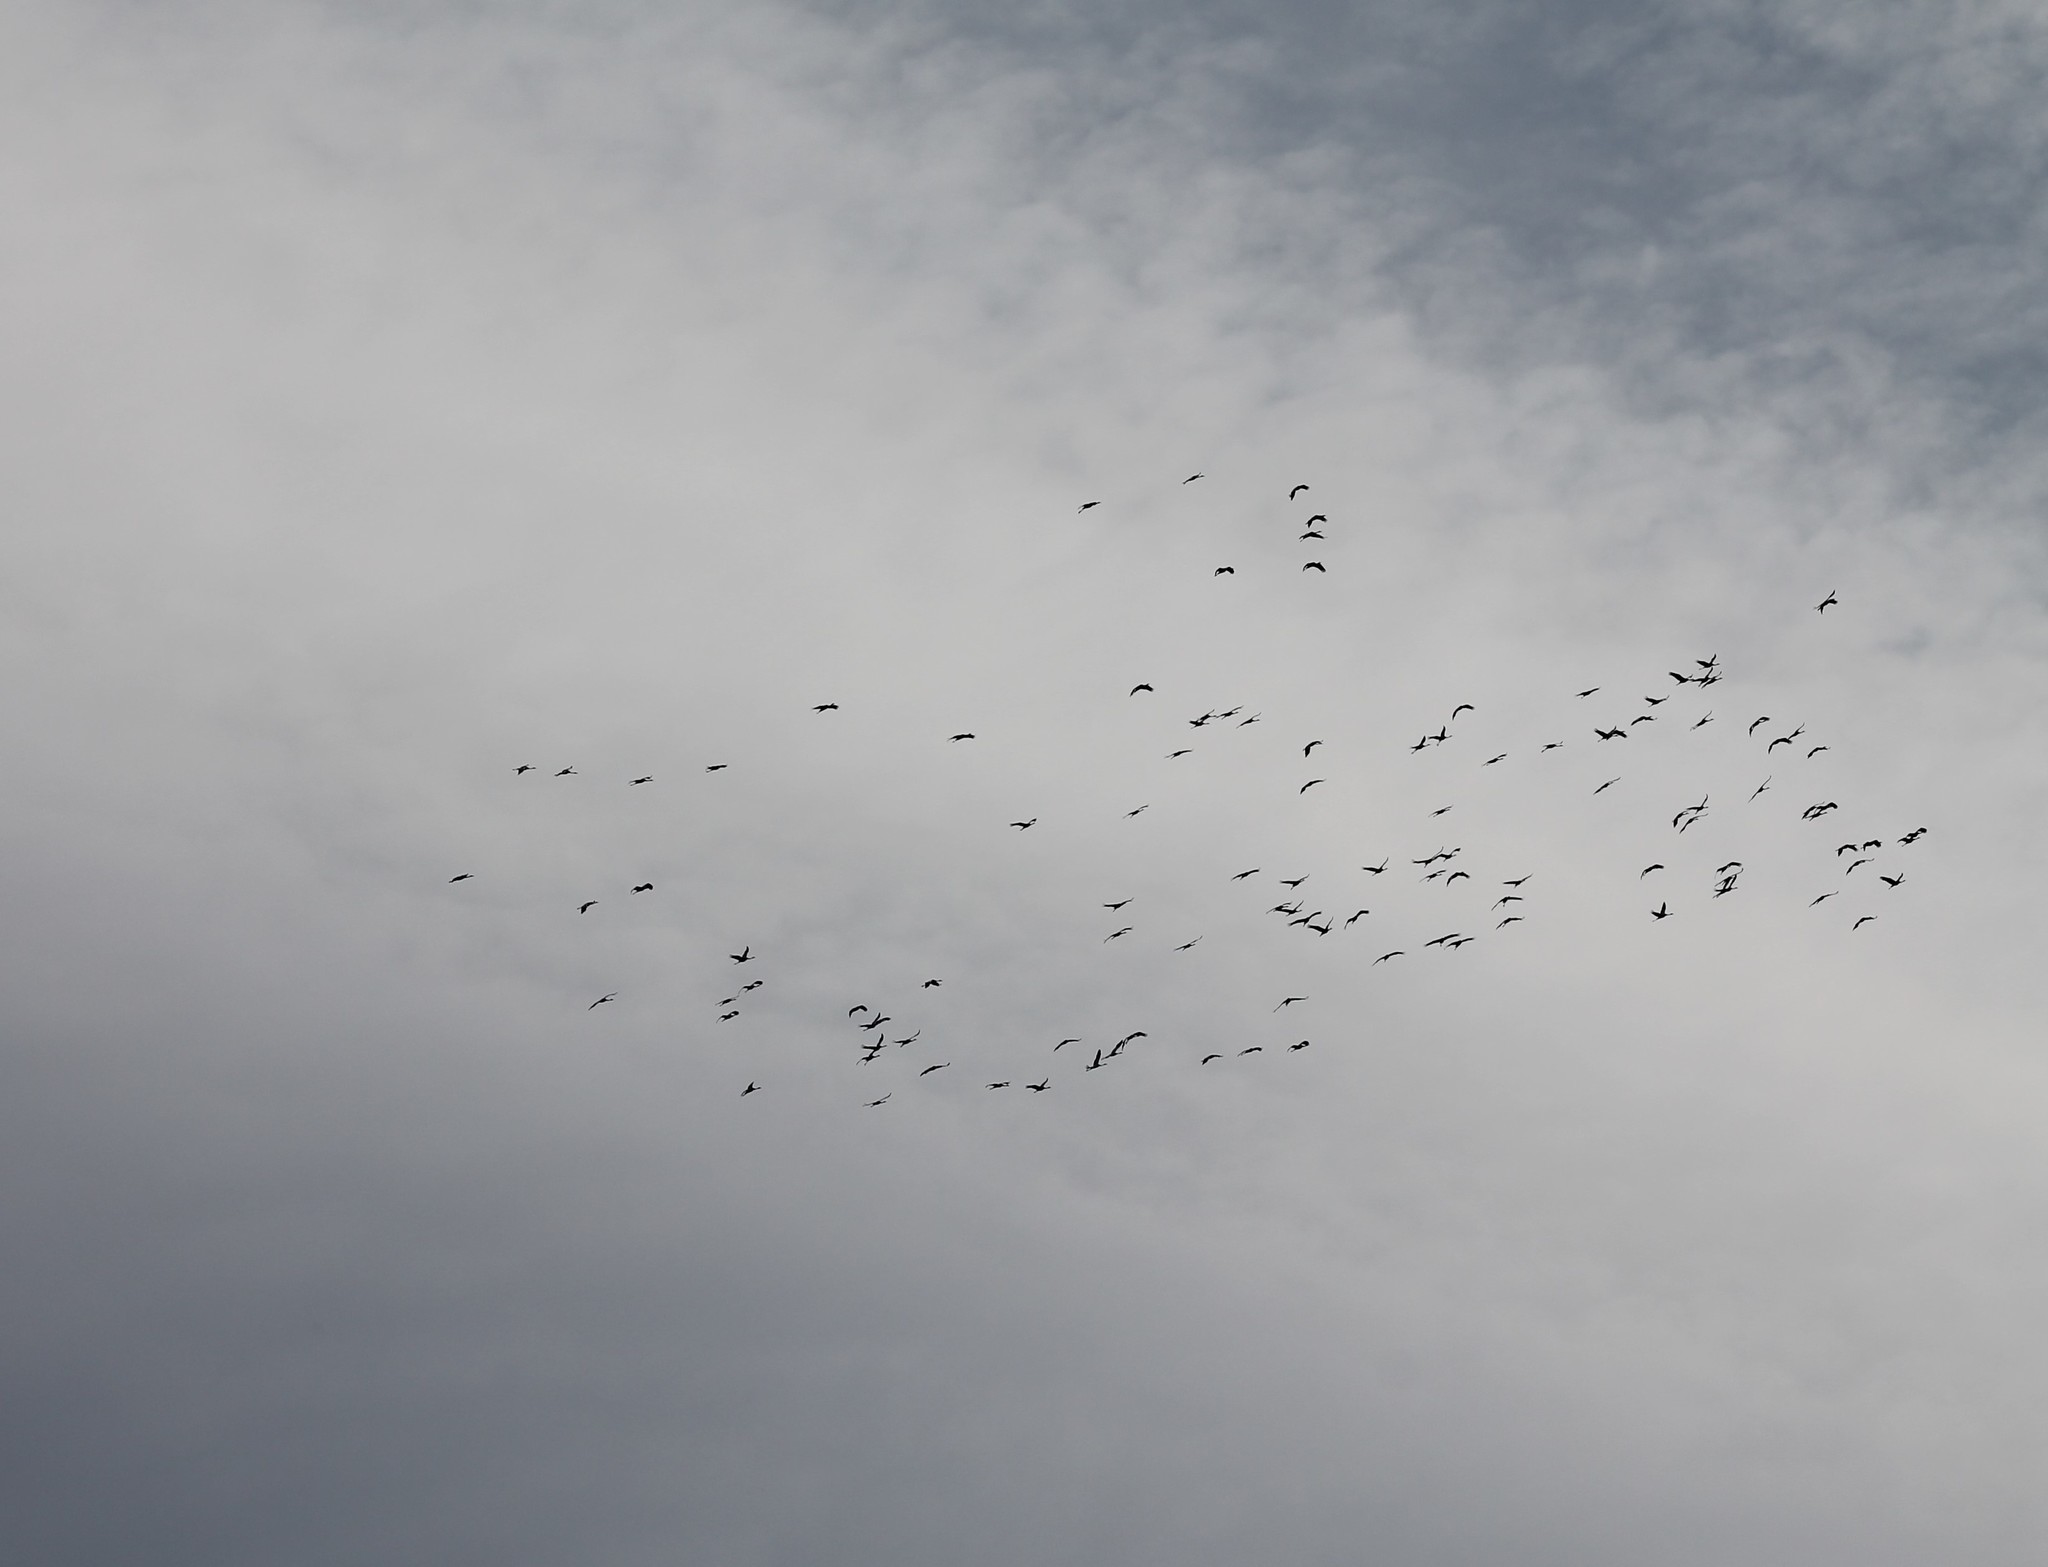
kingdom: Animalia
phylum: Chordata
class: Aves
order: Gruiformes
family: Gruidae
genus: Grus
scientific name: Grus grus
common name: Common crane
